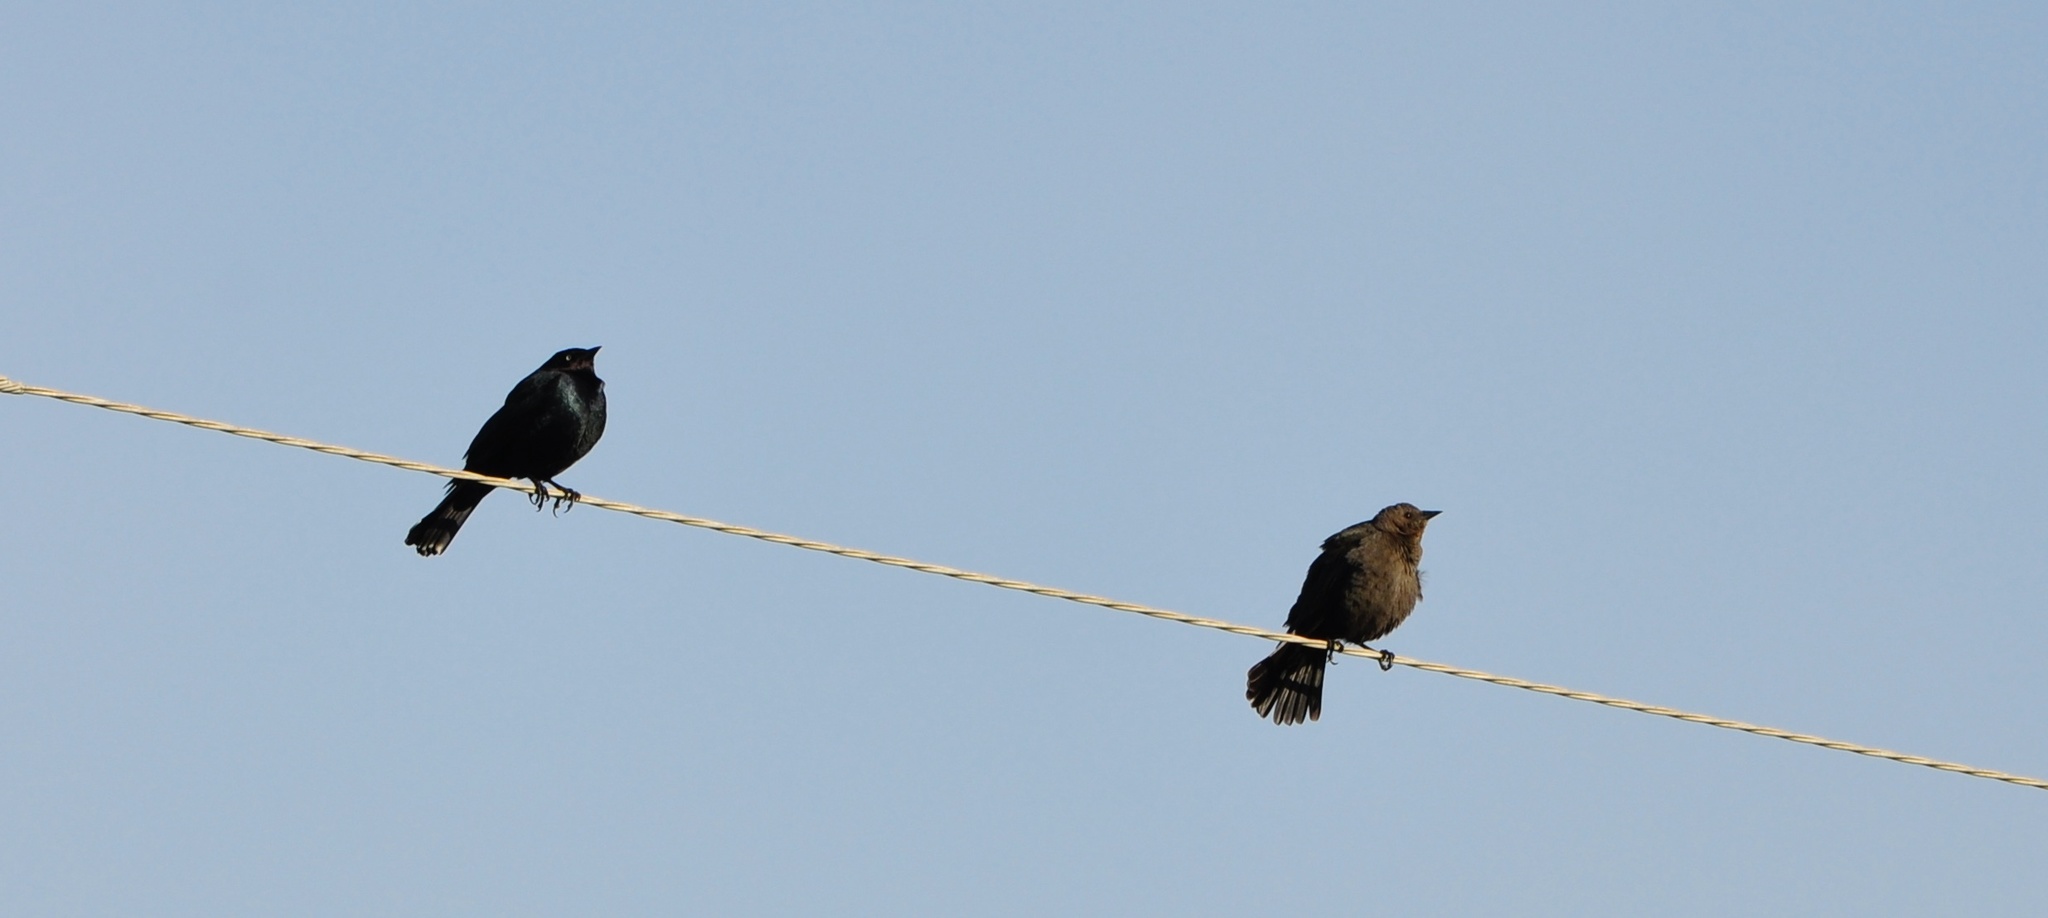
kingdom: Animalia
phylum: Chordata
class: Aves
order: Passeriformes
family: Icteridae
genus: Euphagus
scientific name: Euphagus cyanocephalus
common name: Brewer's blackbird
